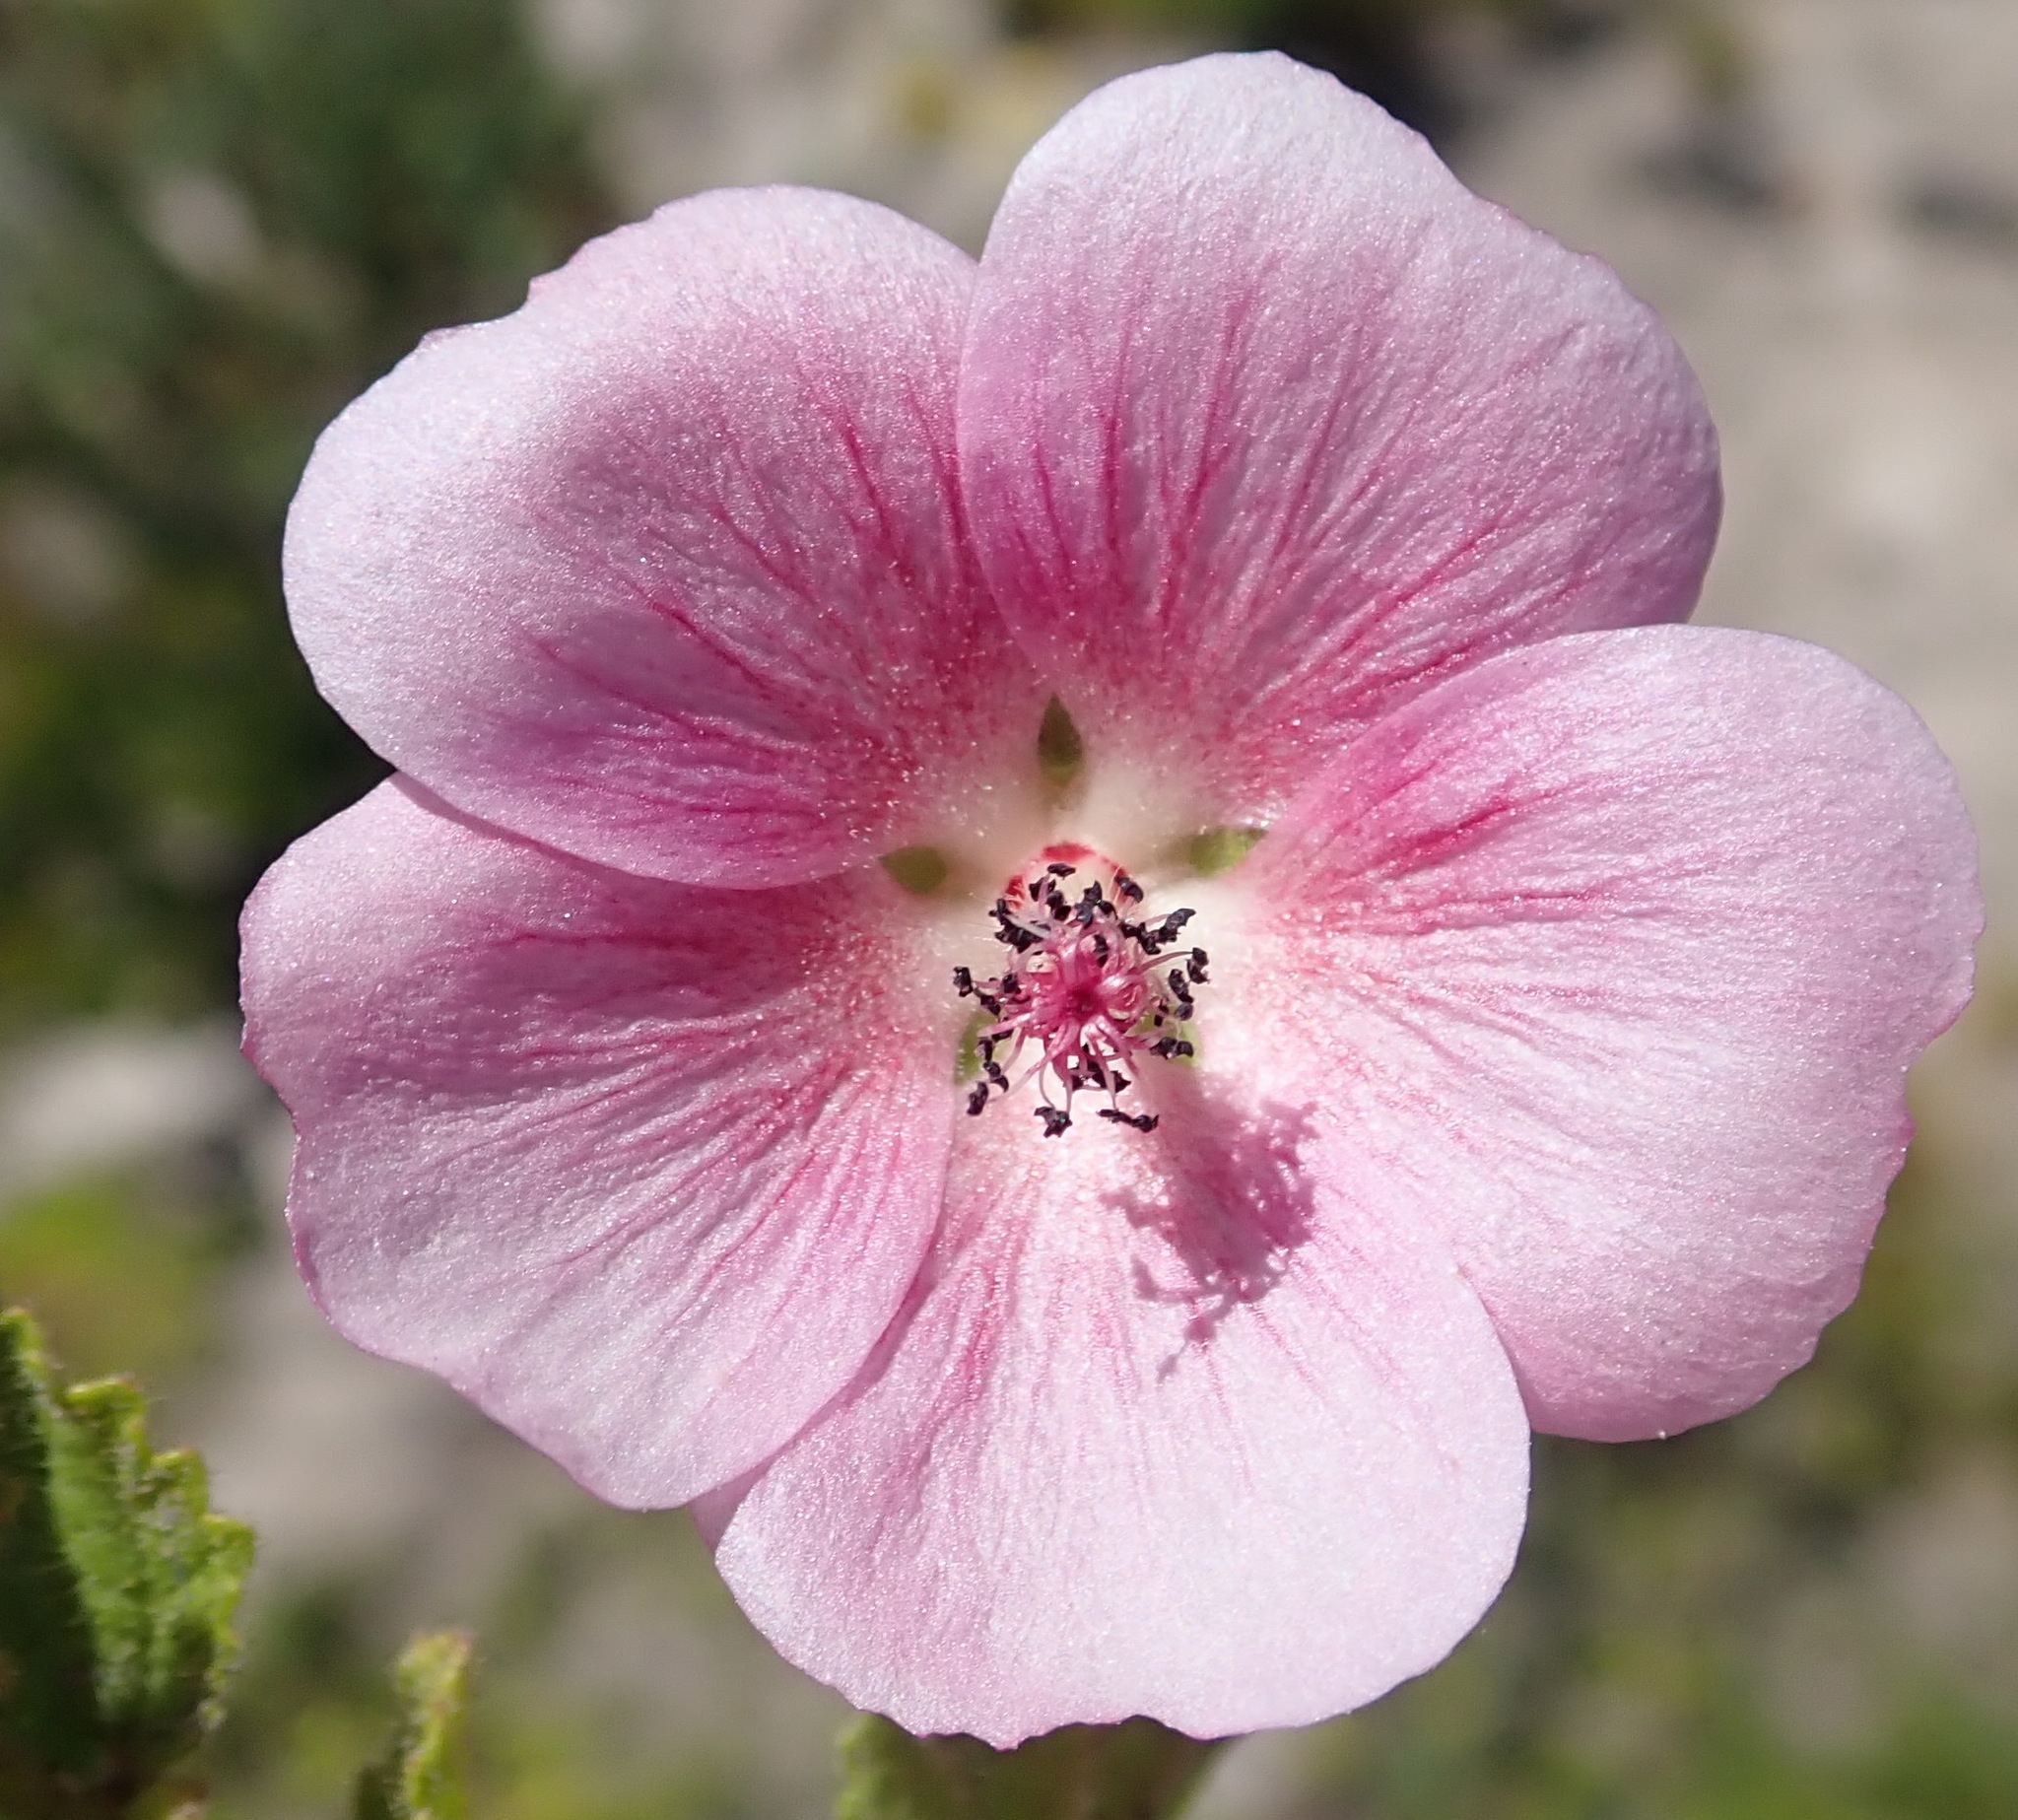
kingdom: Plantae
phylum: Tracheophyta
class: Magnoliopsida
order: Malvales
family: Malvaceae
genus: Anisodontea
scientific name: Anisodontea scabrosa
